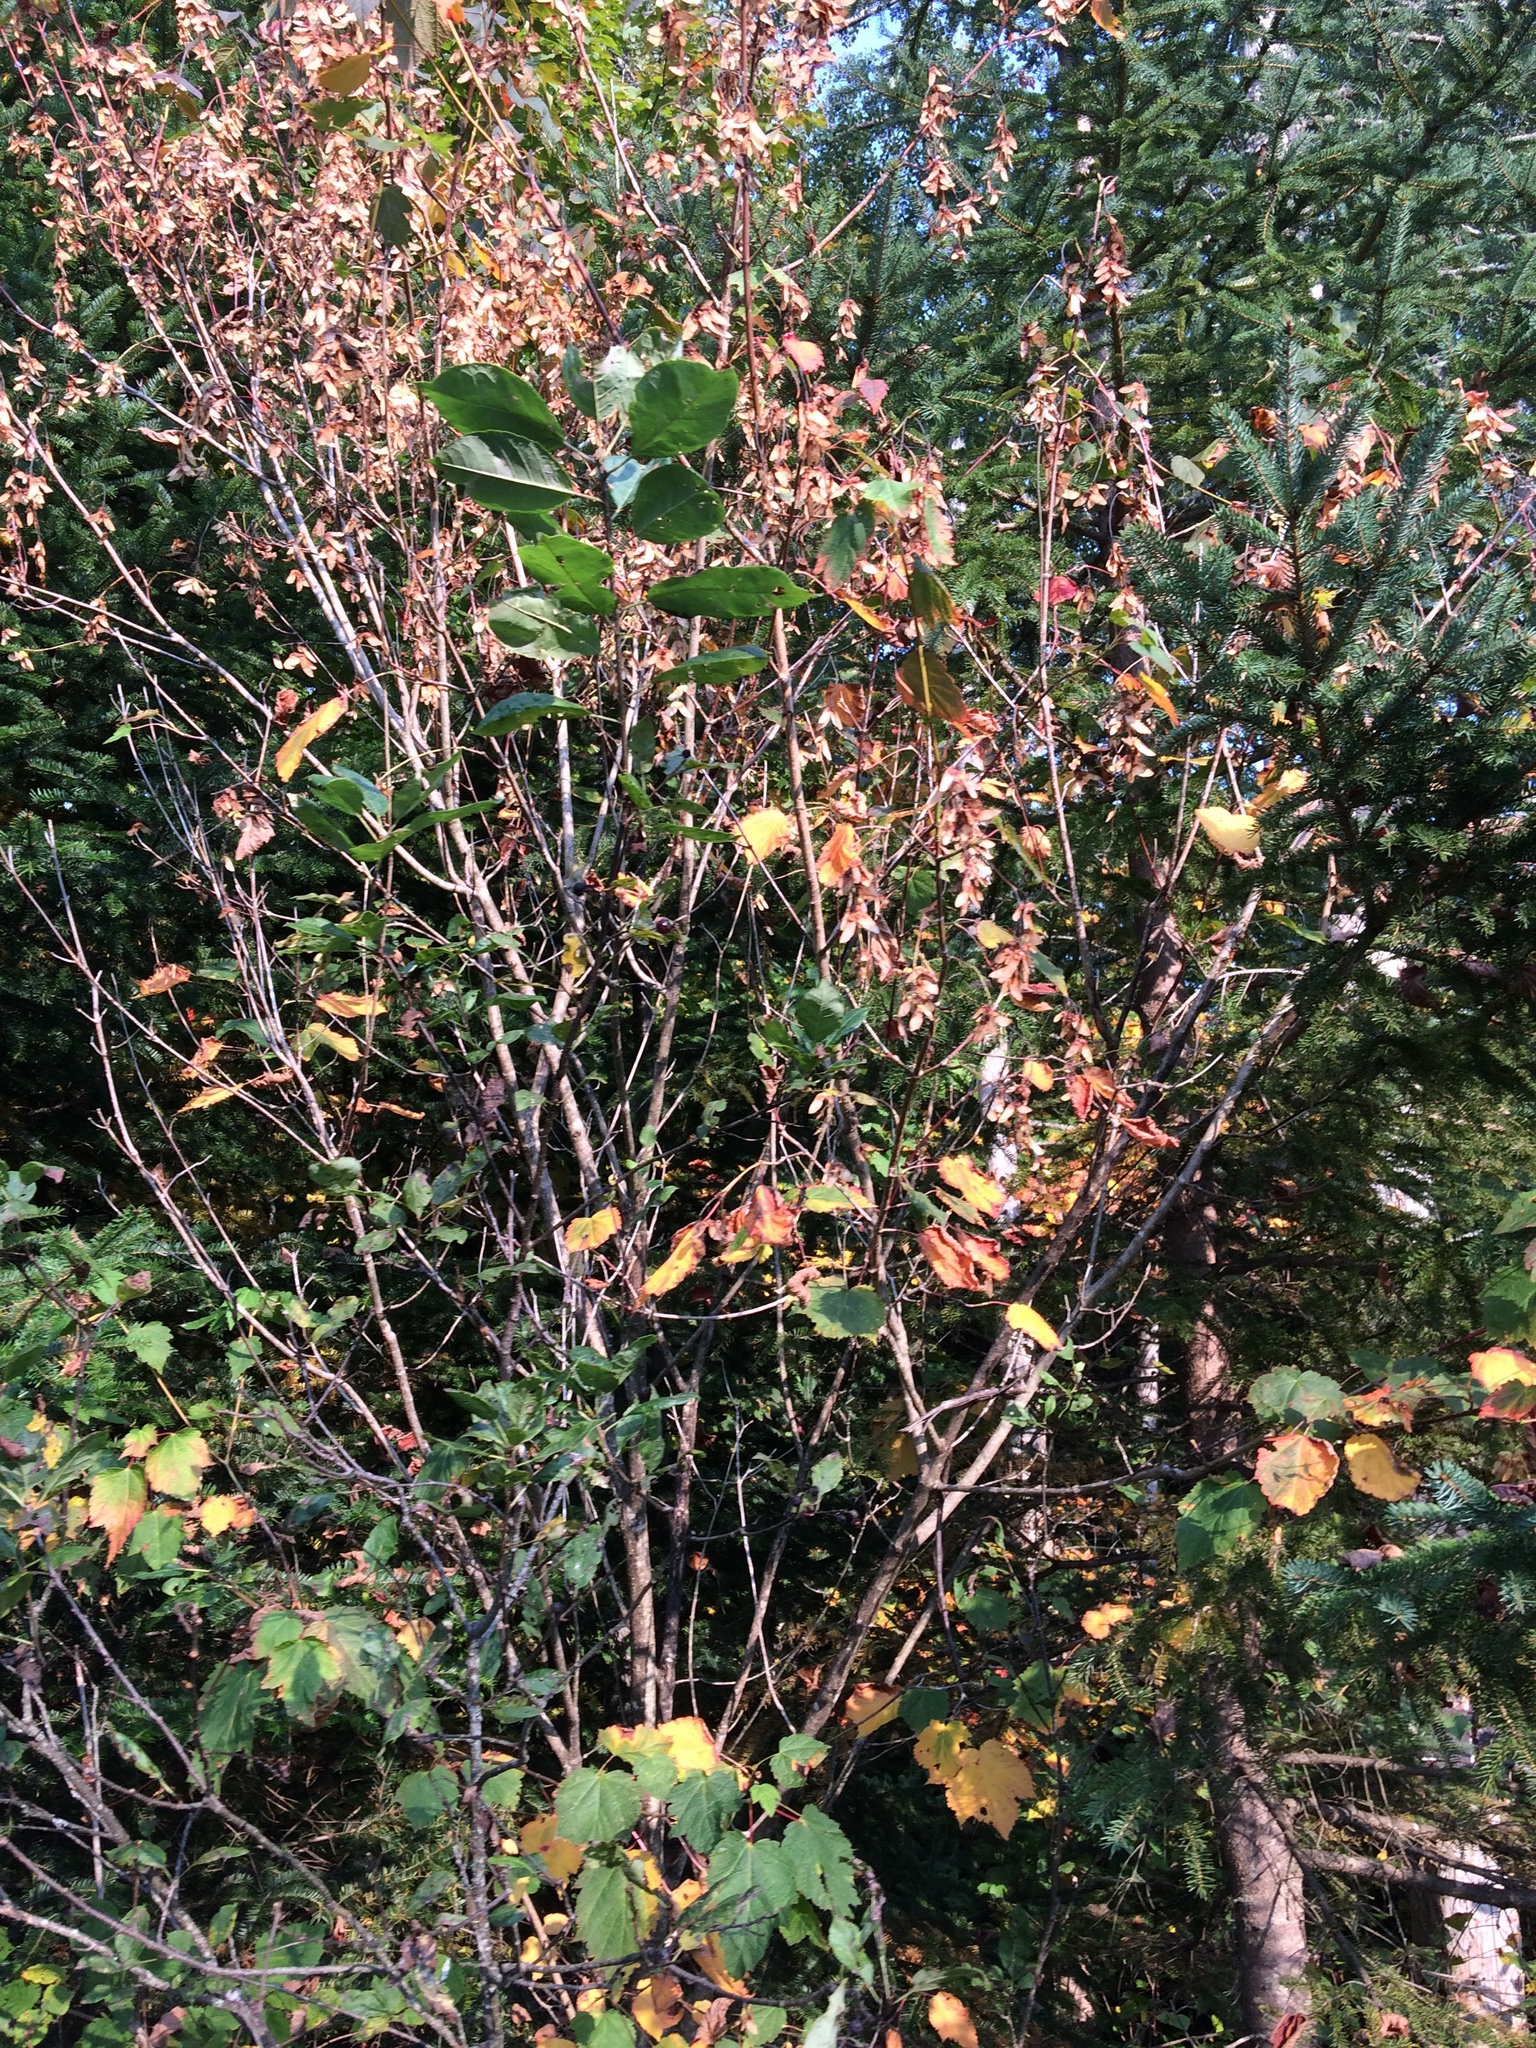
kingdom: Plantae
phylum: Tracheophyta
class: Magnoliopsida
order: Sapindales
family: Sapindaceae
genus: Acer
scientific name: Acer spicatum
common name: Mountain maple
